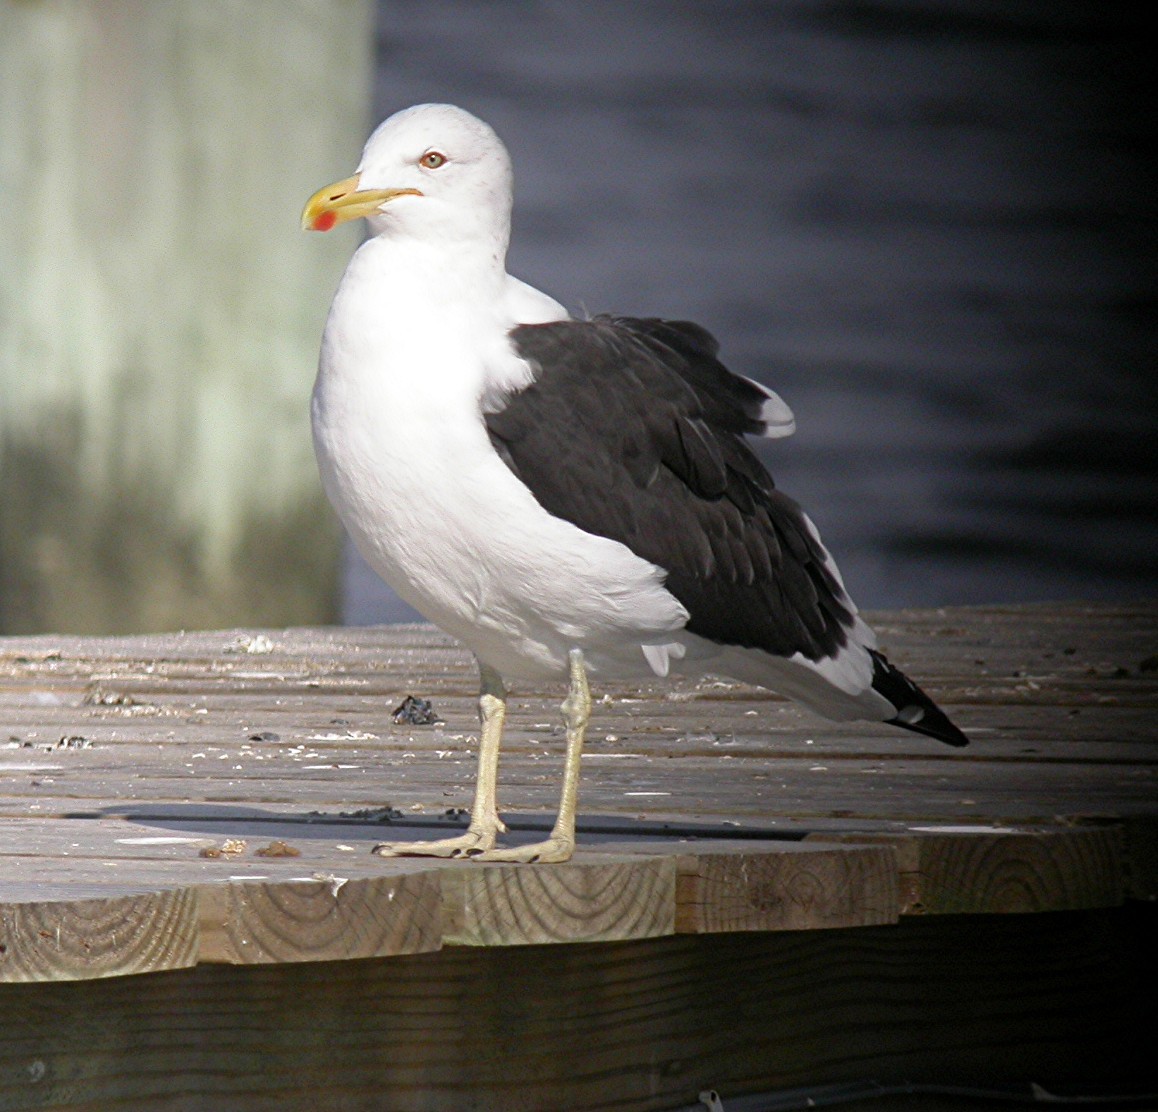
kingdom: Animalia
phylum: Chordata
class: Aves
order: Charadriiformes
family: Laridae
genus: Larus
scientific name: Larus dominicanus
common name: Kelp gull
